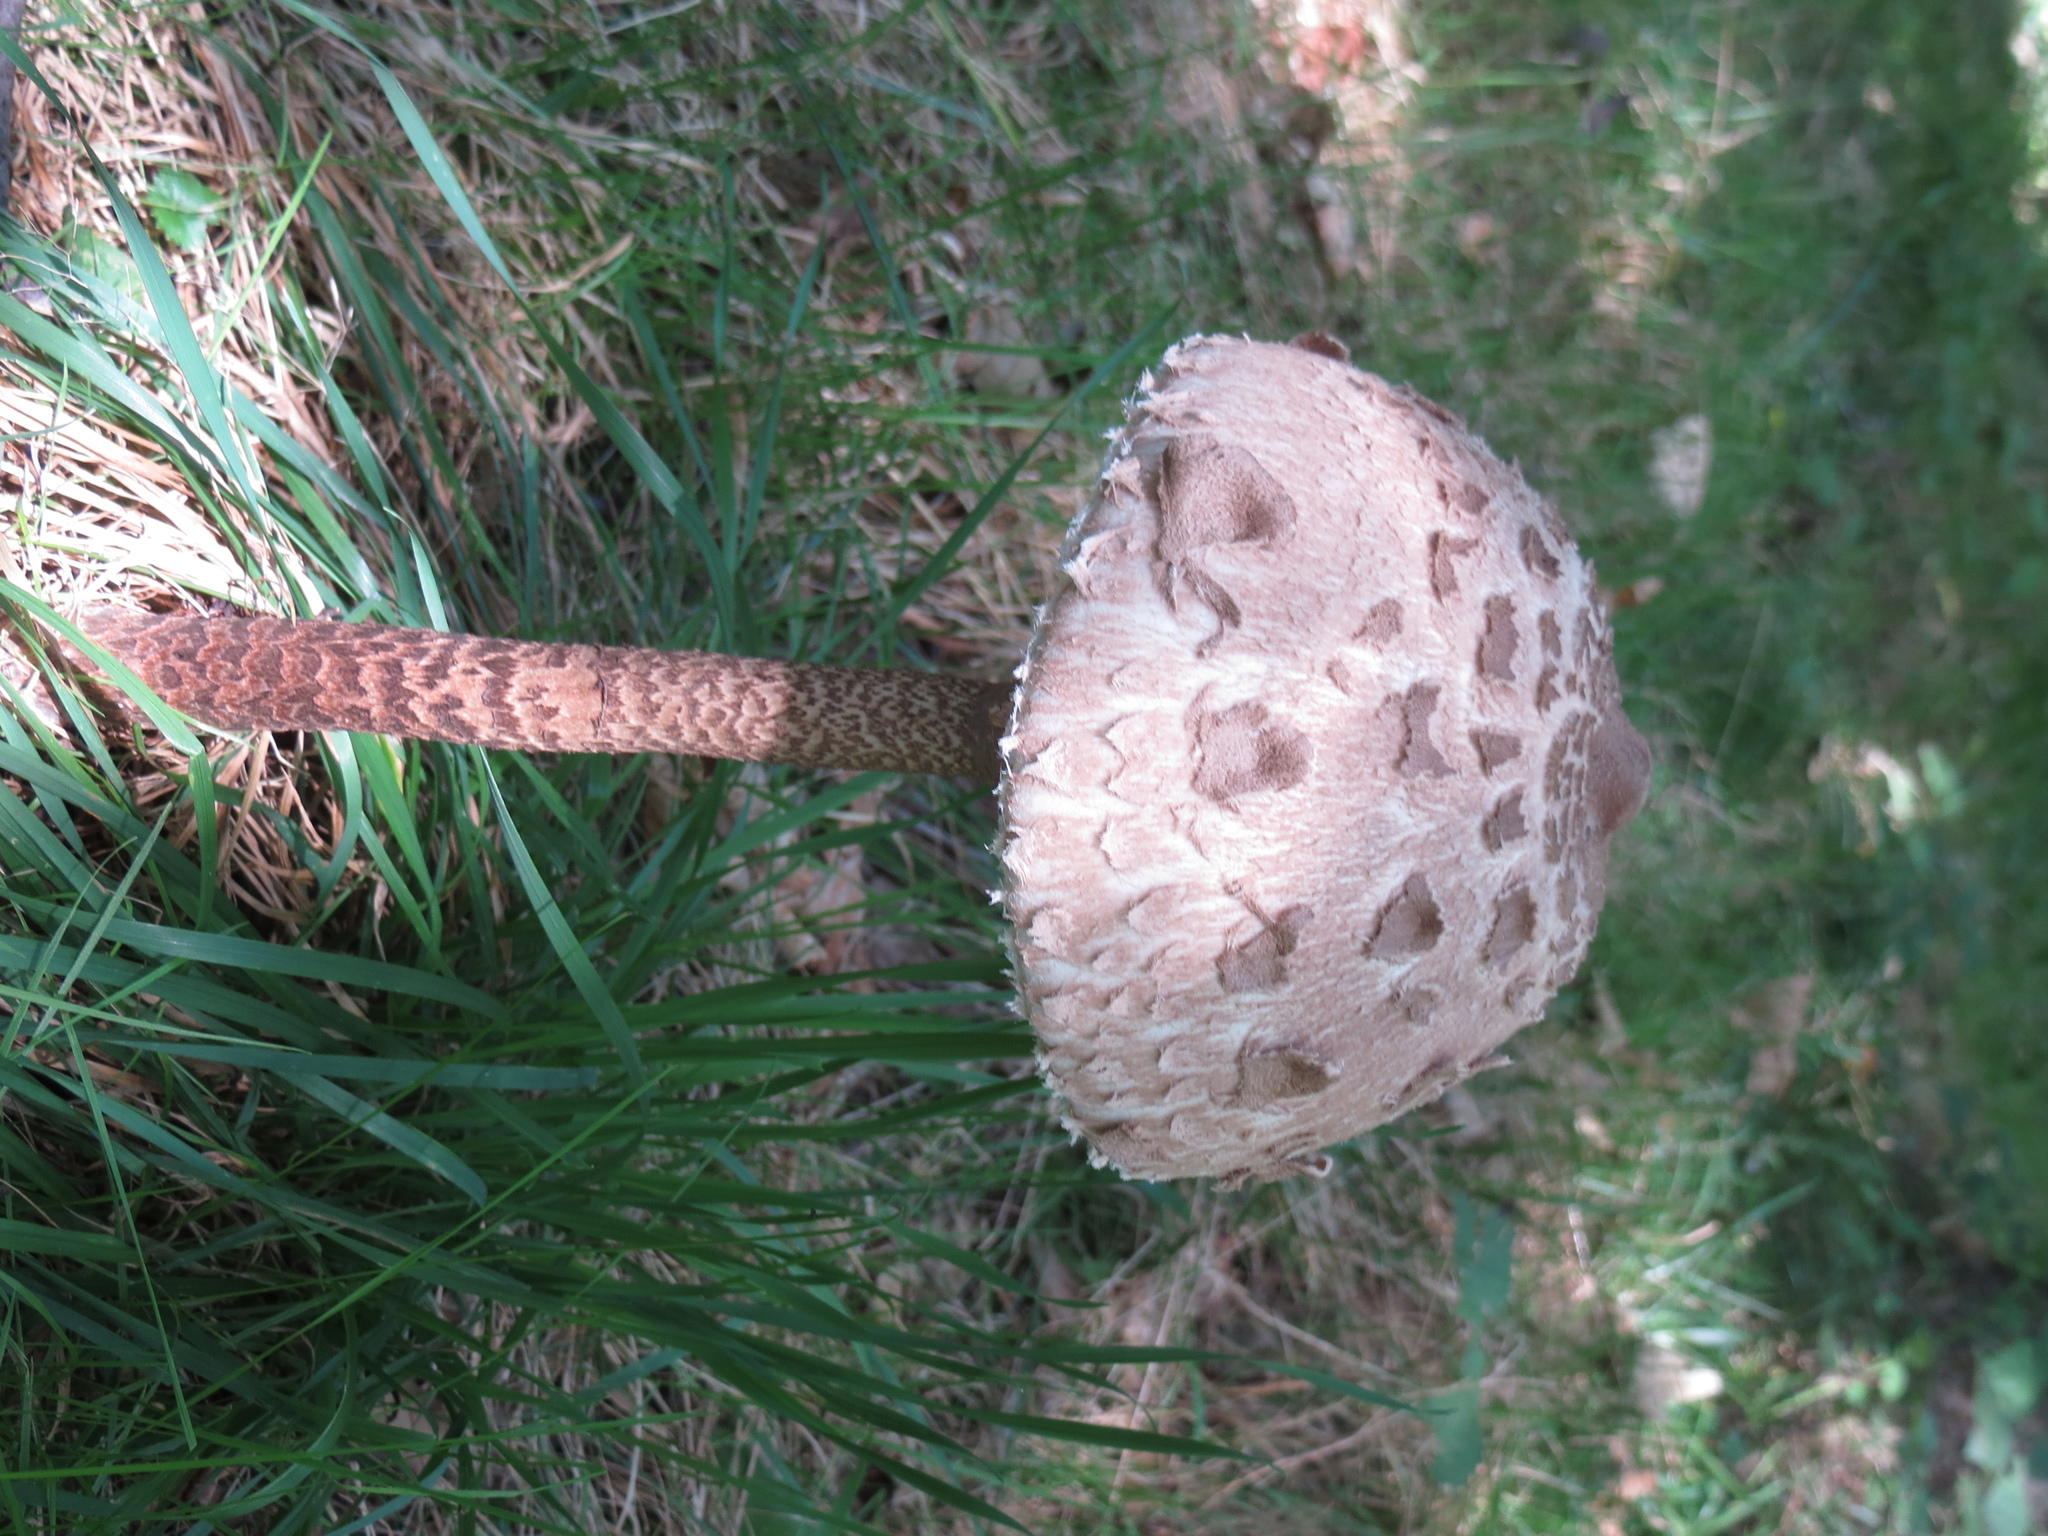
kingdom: Fungi
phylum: Basidiomycota
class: Agaricomycetes
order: Agaricales
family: Agaricaceae
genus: Macrolepiota
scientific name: Macrolepiota procera
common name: Parasol
